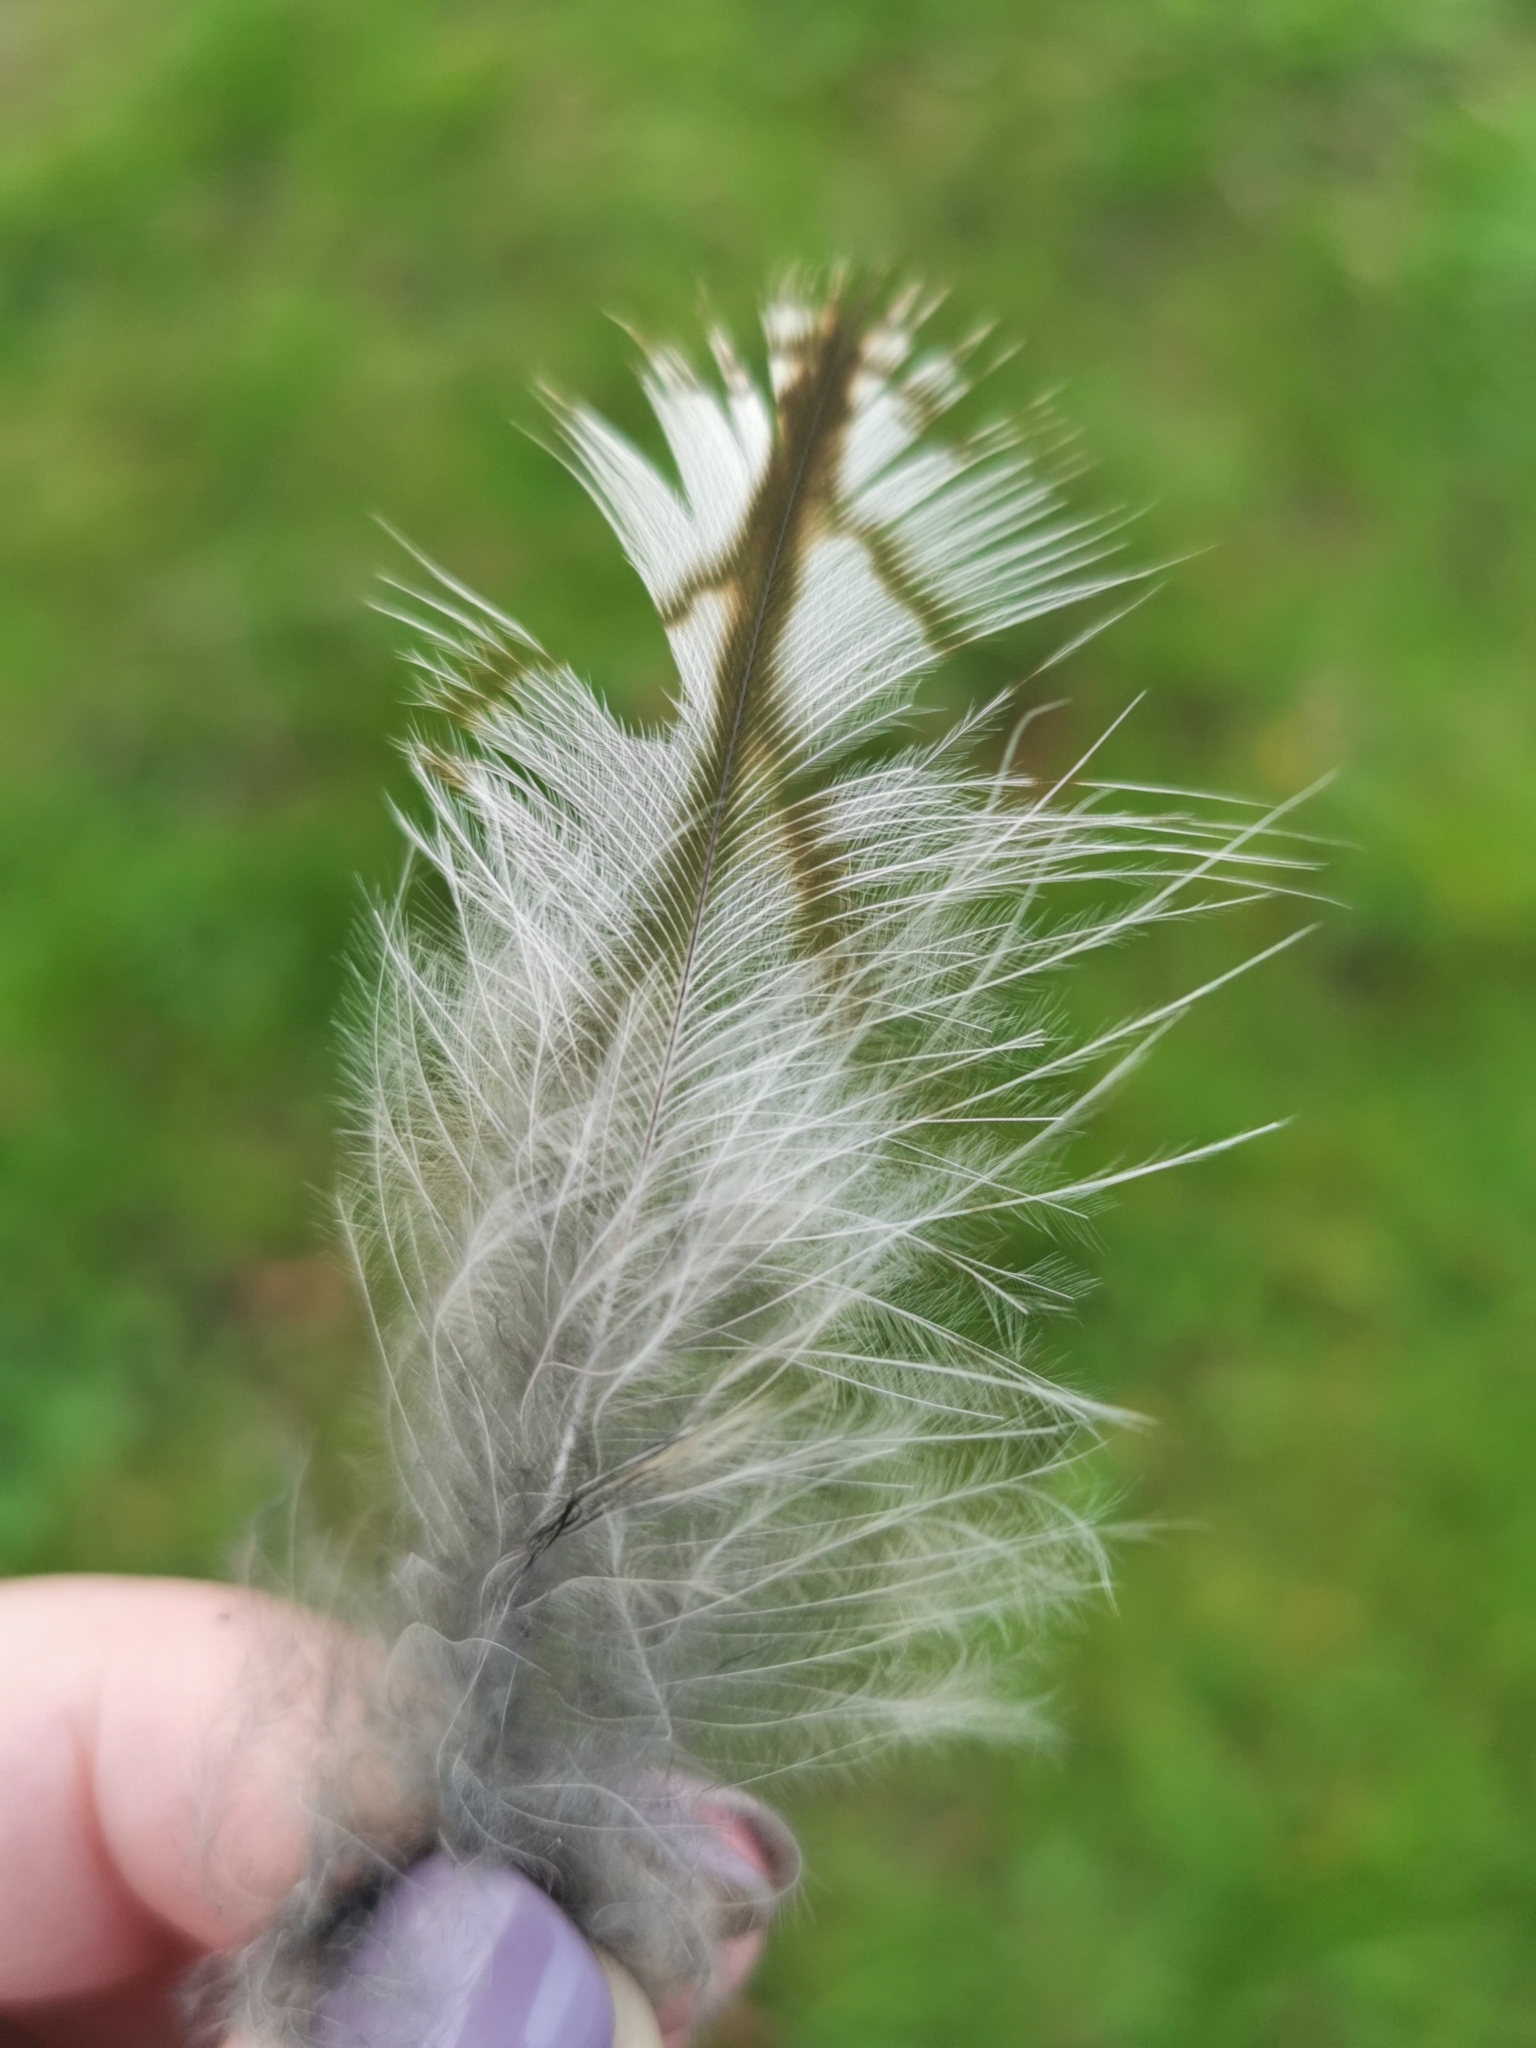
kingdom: Animalia
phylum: Chordata
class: Aves
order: Strigiformes
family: Strigidae
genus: Strix
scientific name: Strix aluco
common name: Tawny owl
